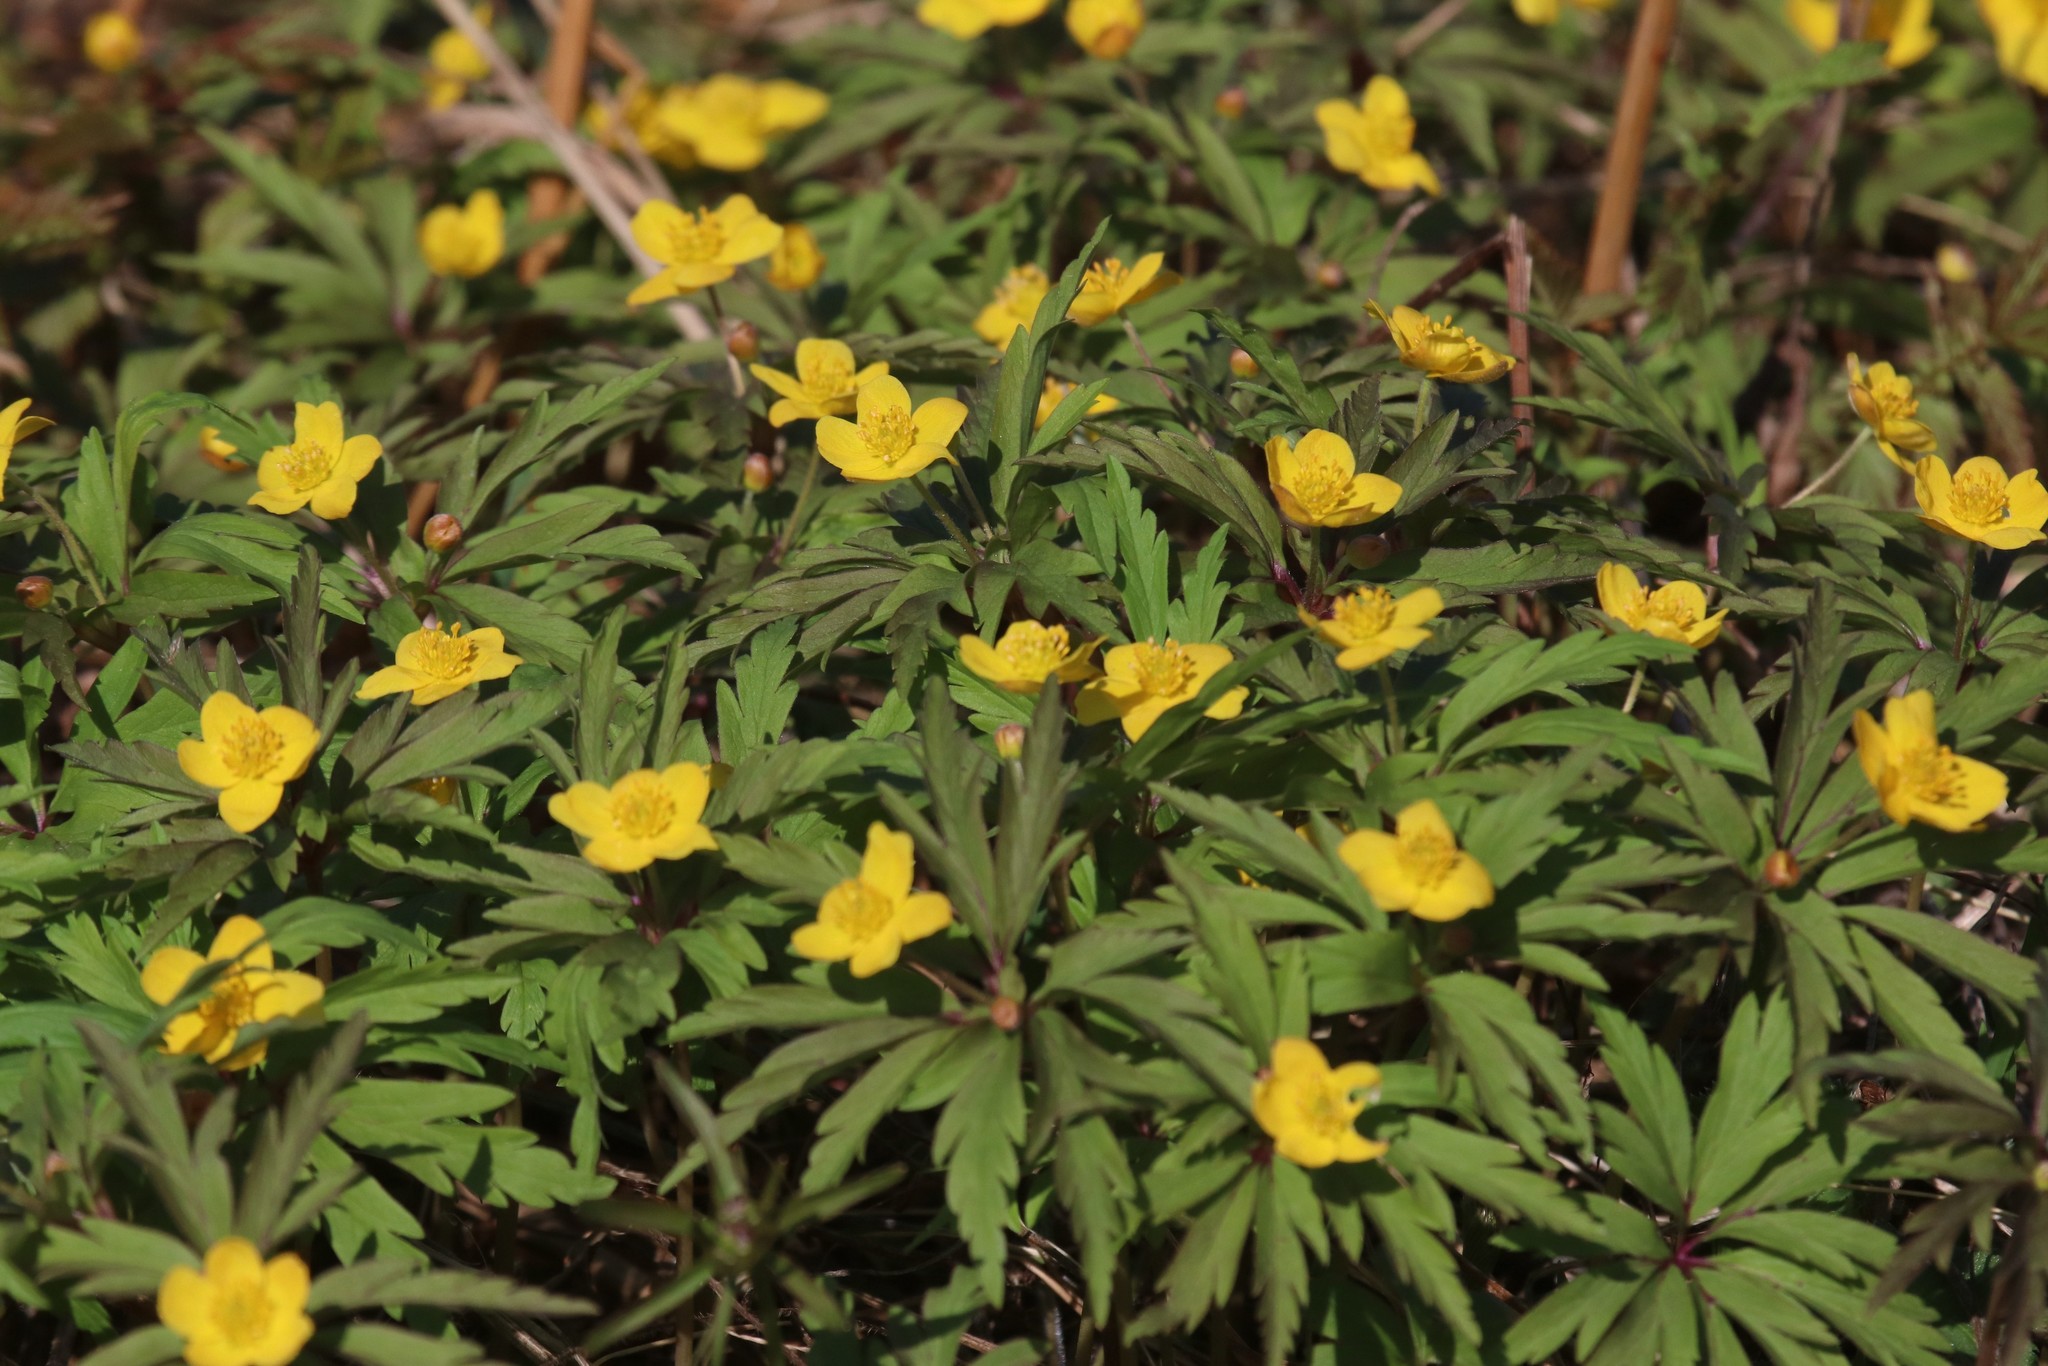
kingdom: Plantae
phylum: Tracheophyta
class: Magnoliopsida
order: Ranunculales
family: Ranunculaceae
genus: Anemone
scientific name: Anemone ranunculoides
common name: Yellow anemone
